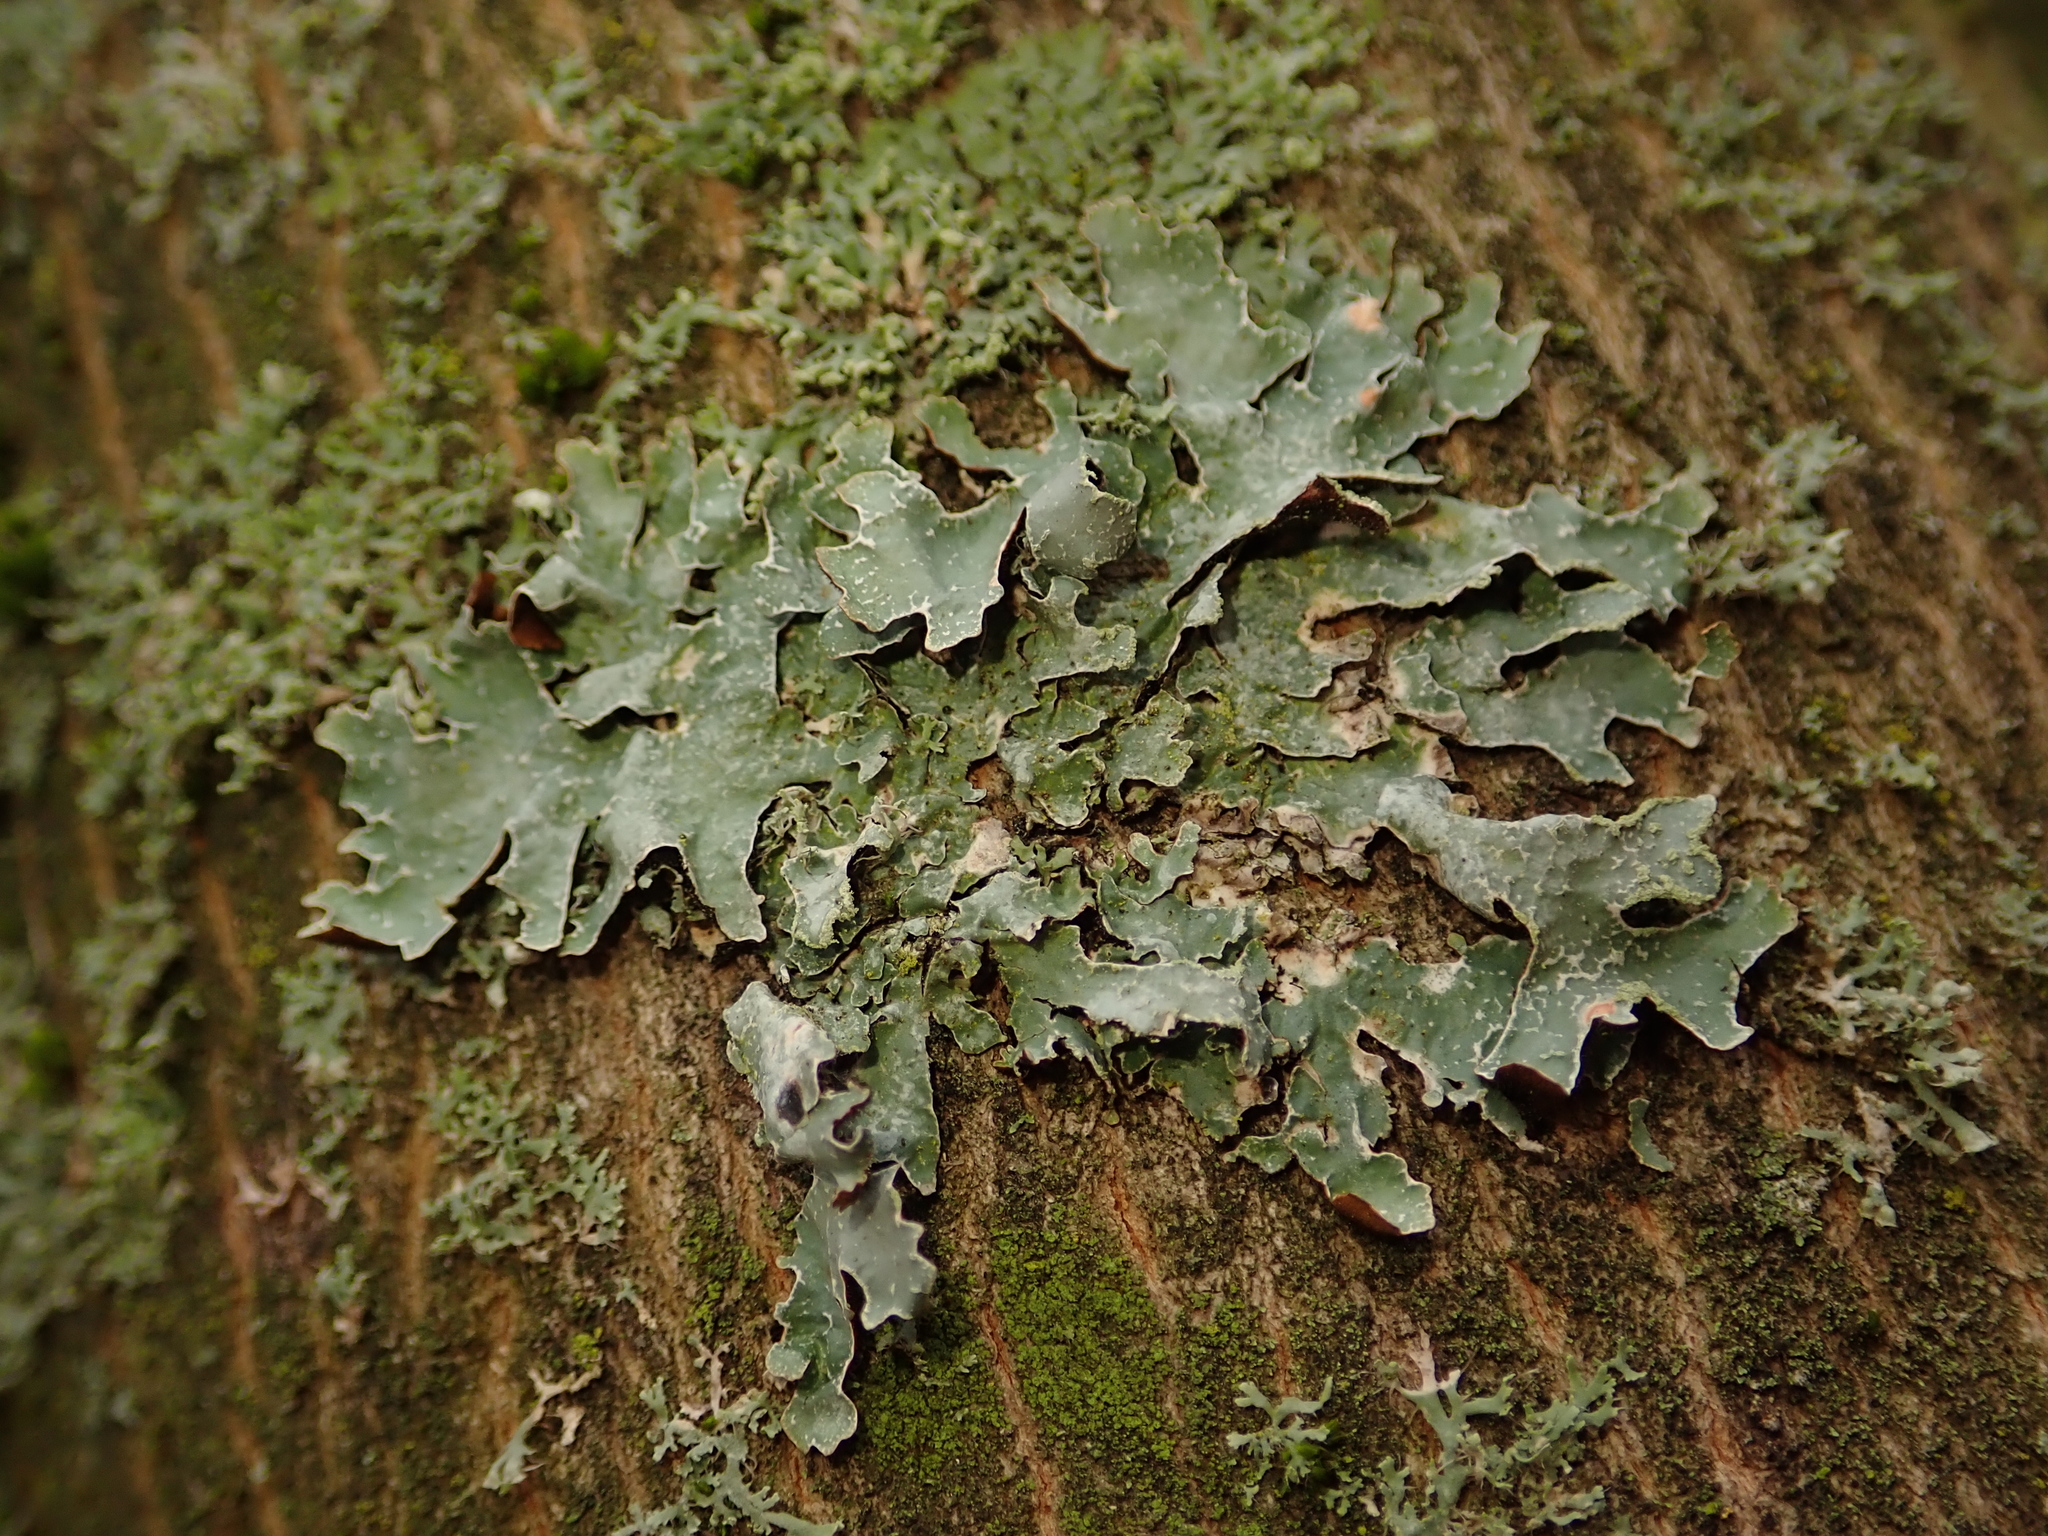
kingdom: Fungi
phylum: Ascomycota
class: Lecanoromycetes
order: Lecanorales
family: Parmeliaceae
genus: Parmelia
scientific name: Parmelia sulcata
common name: Netted shield lichen
